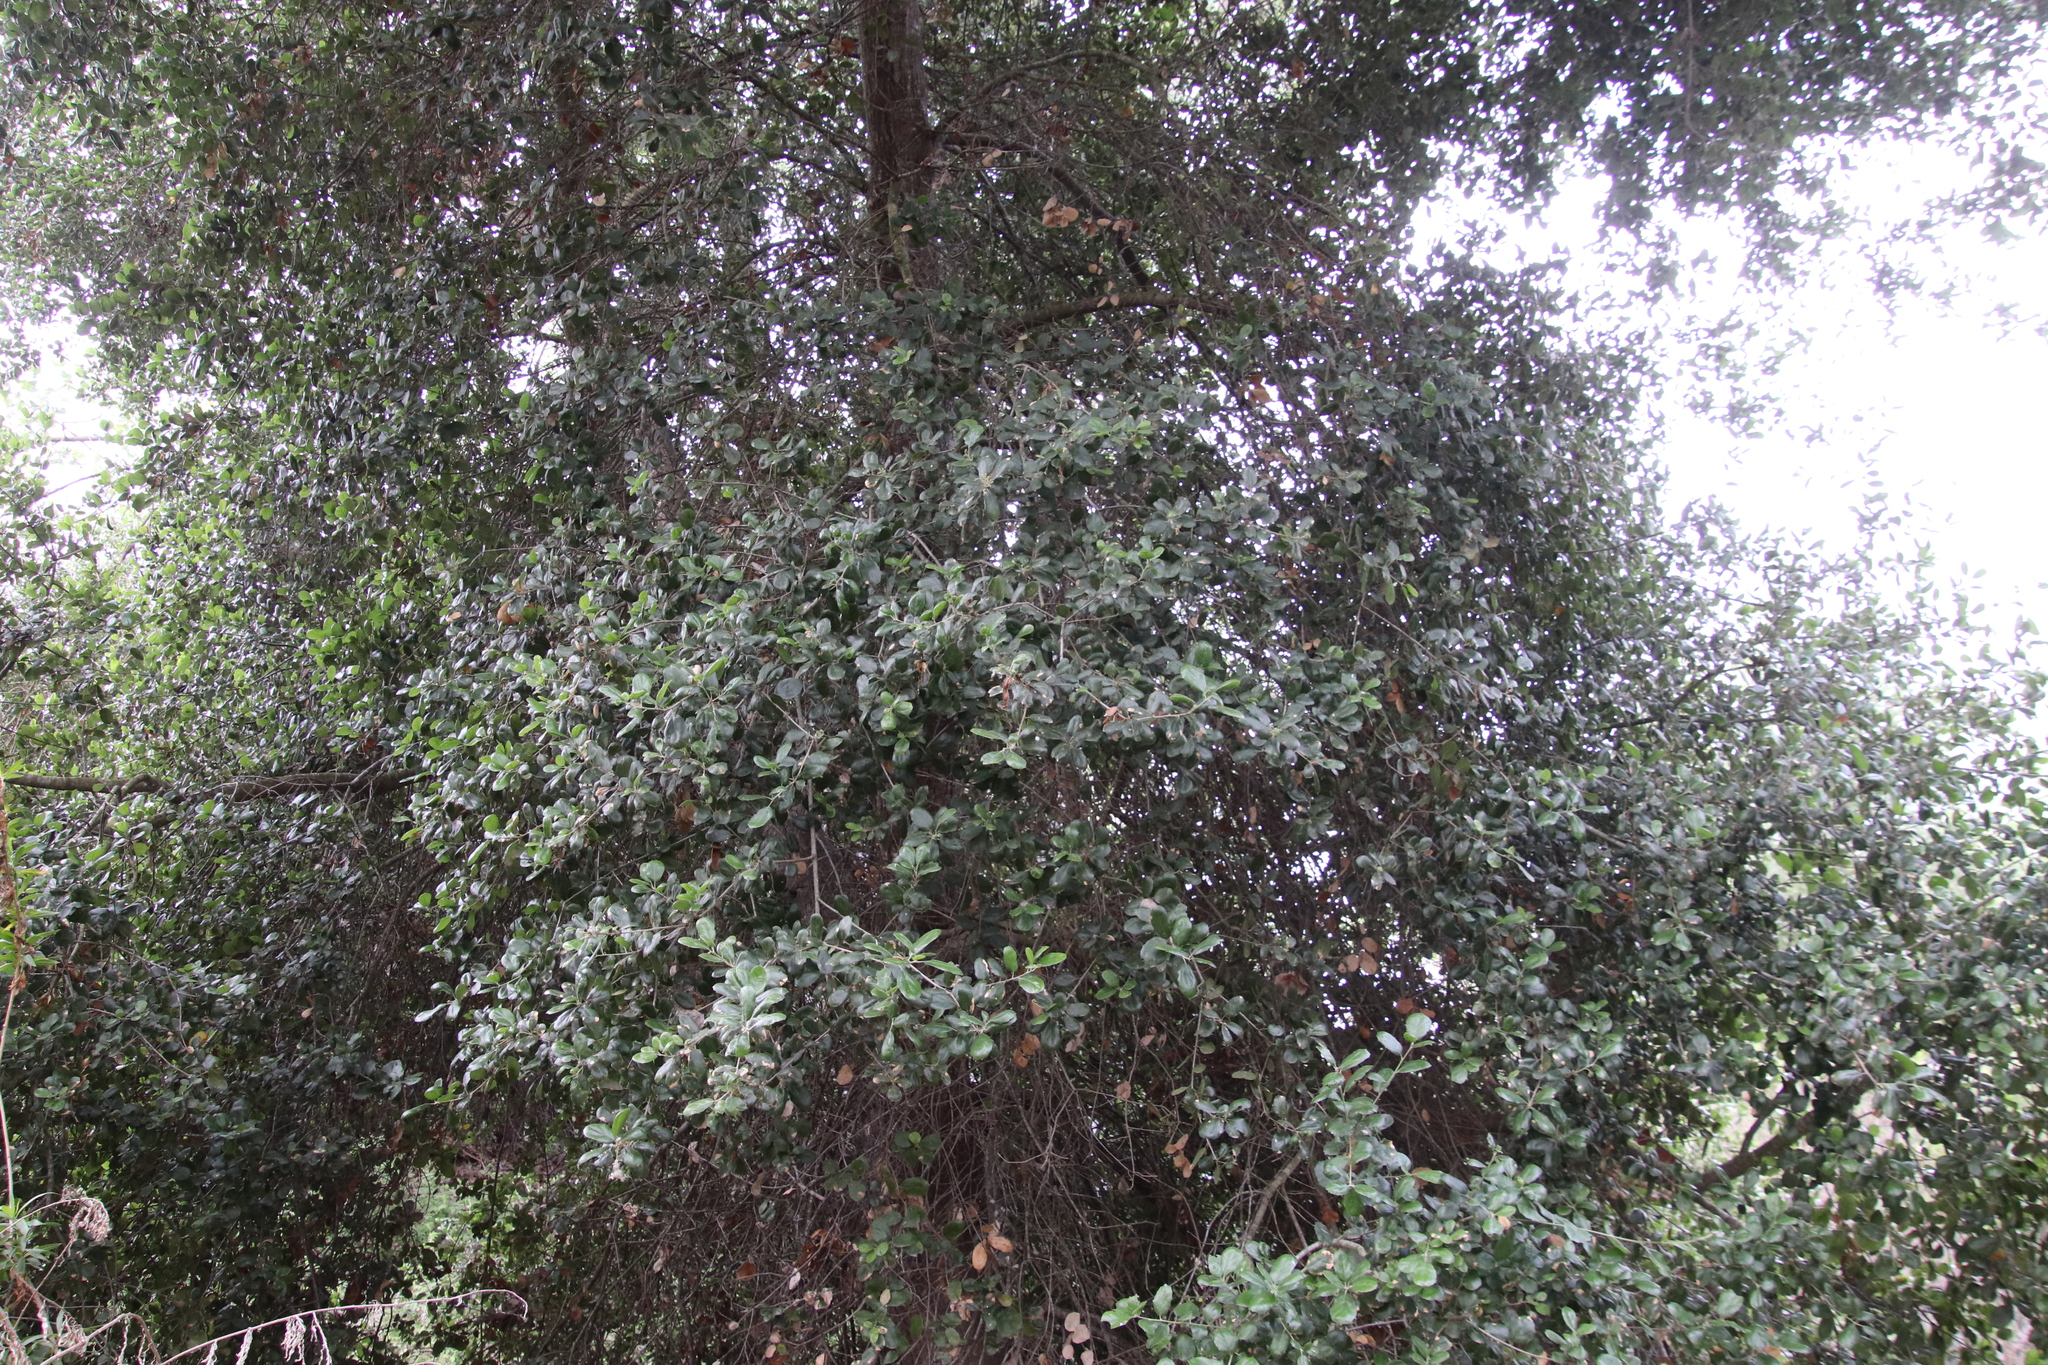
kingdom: Plantae
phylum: Tracheophyta
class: Magnoliopsida
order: Fagales
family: Fagaceae
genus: Quercus
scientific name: Quercus agrifolia
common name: California live oak
